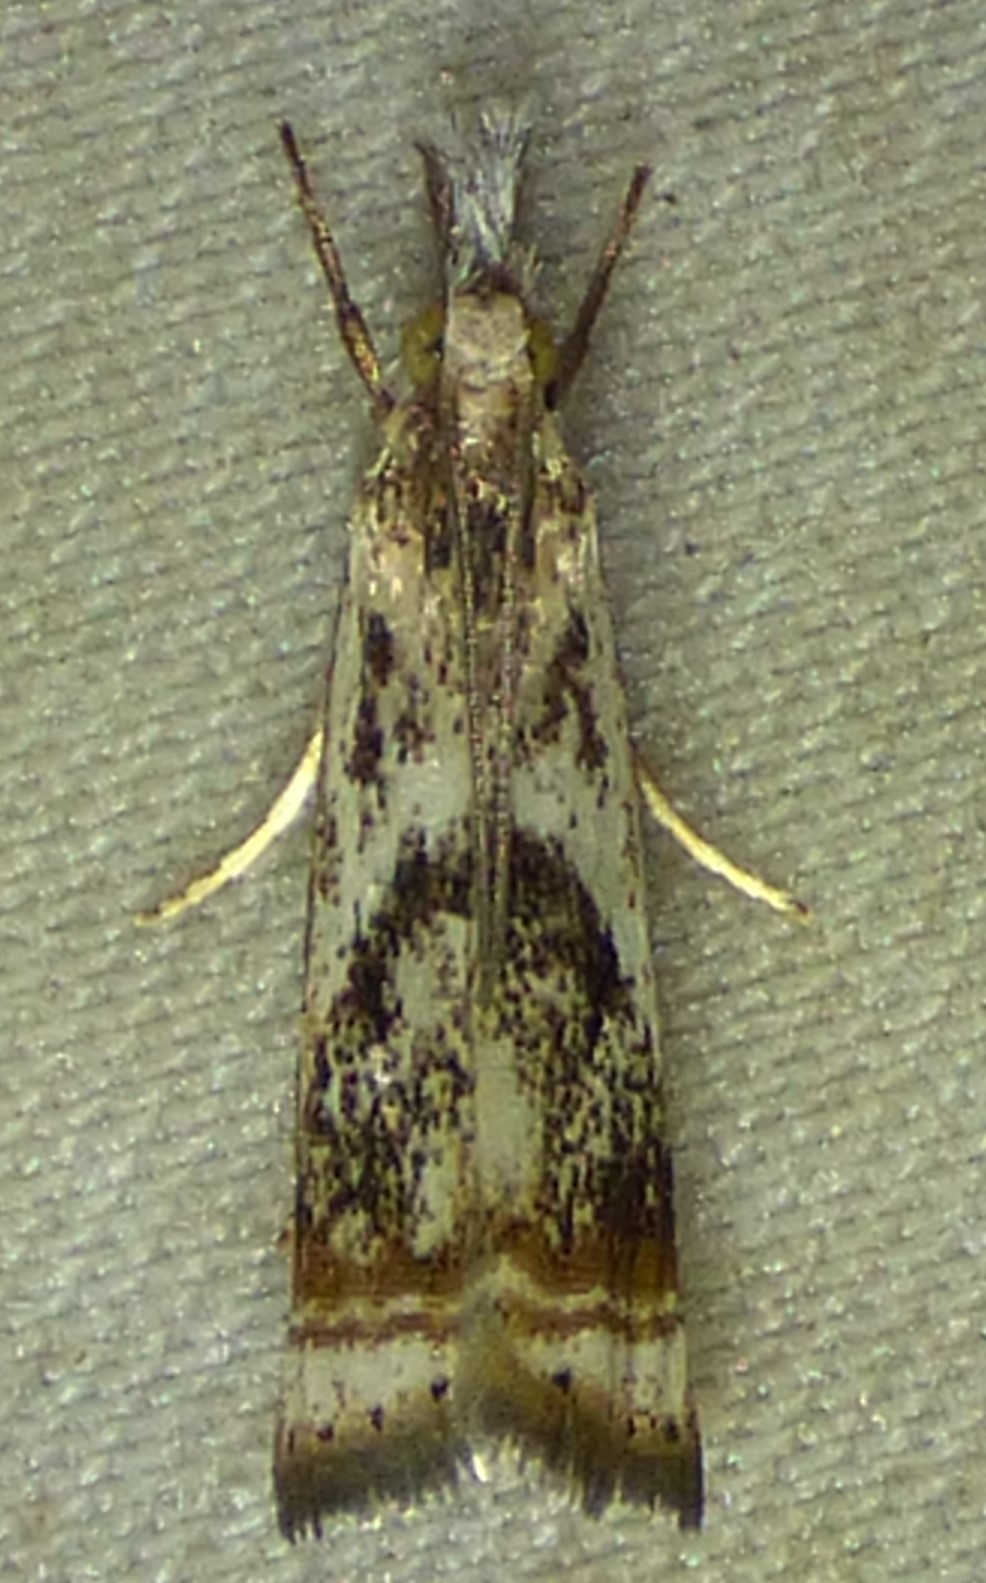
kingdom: Animalia
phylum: Arthropoda
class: Insecta
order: Lepidoptera
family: Crambidae
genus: Microcrambus
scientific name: Microcrambus elegans
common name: Elegant grass-veneer
